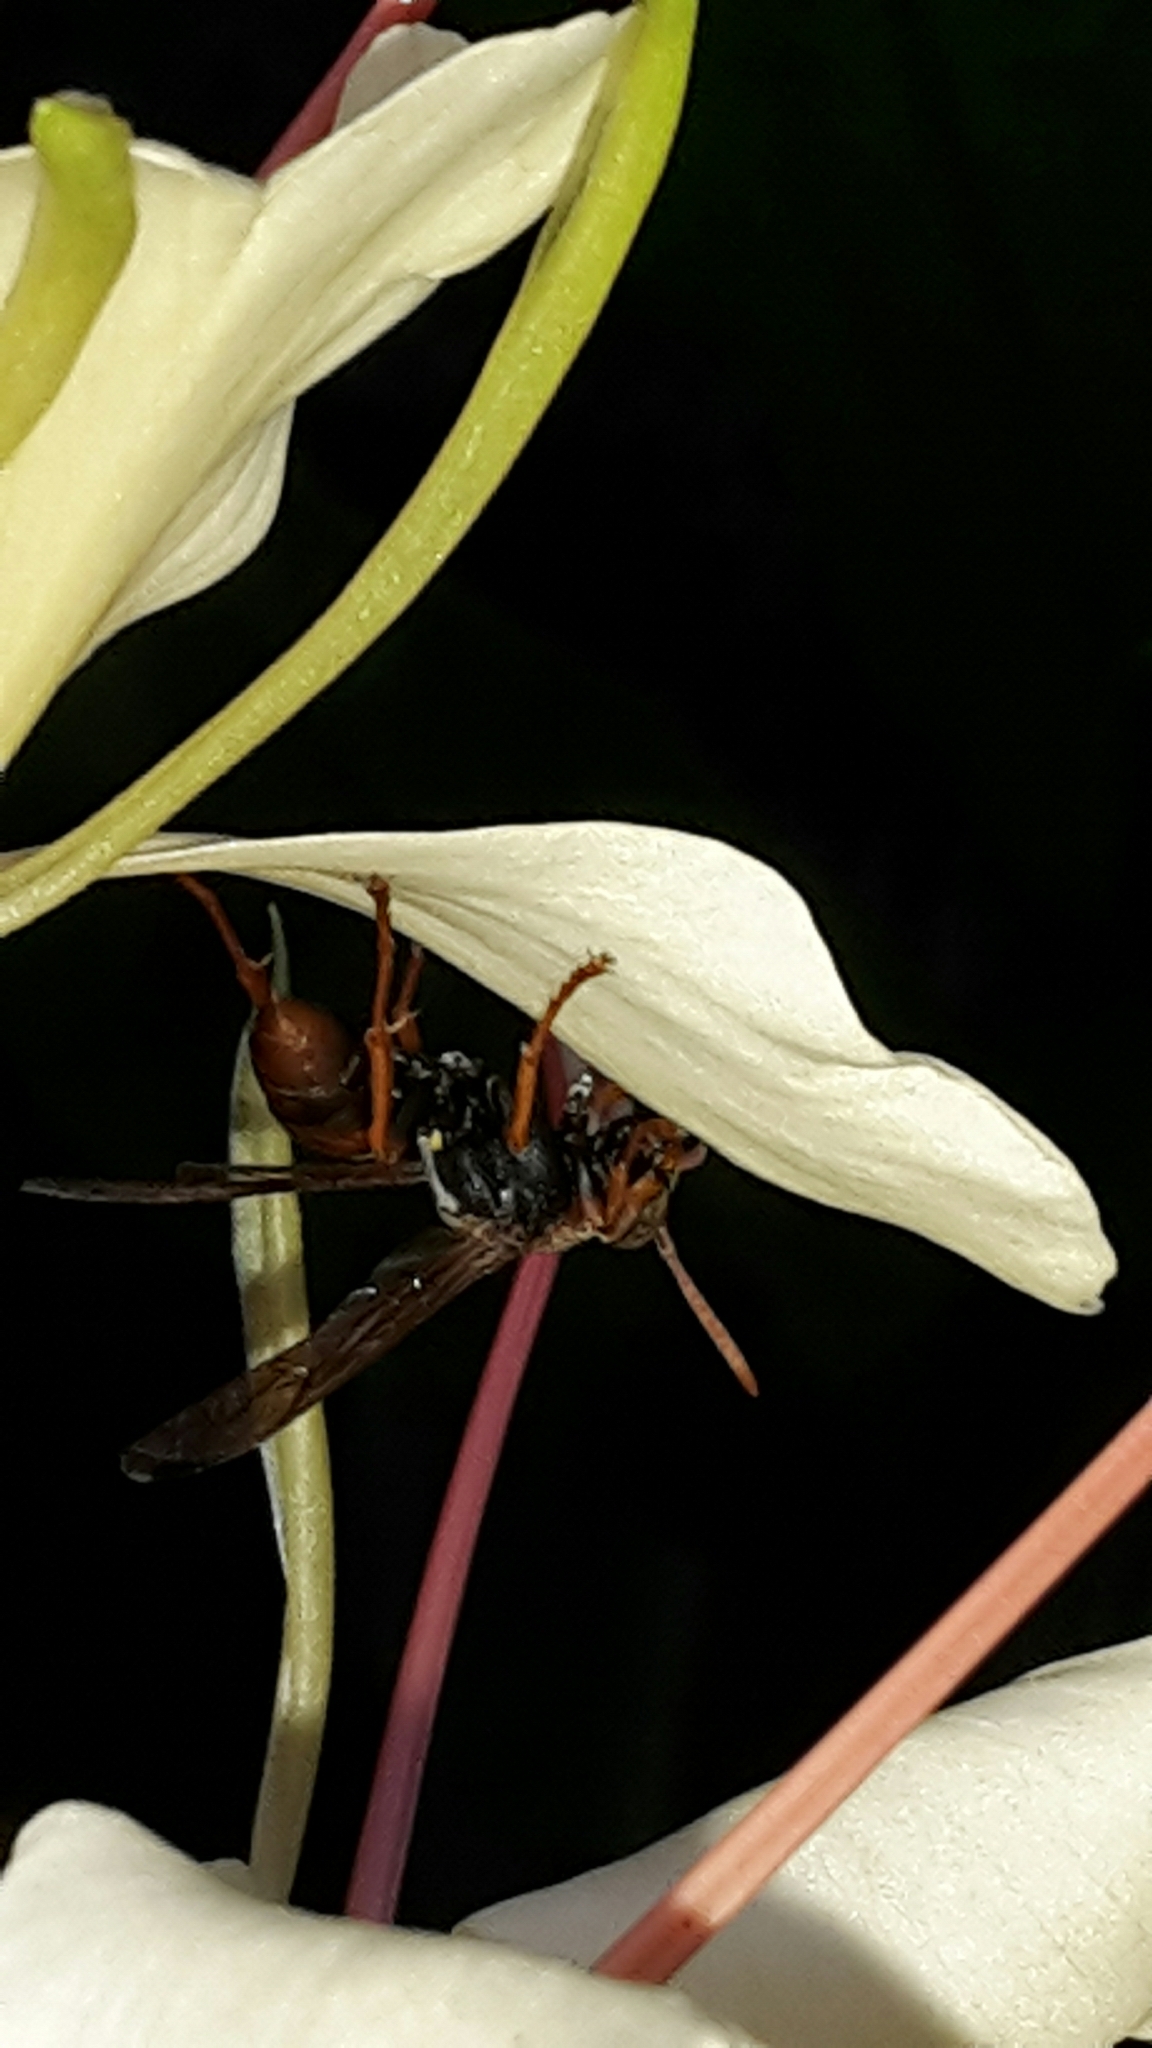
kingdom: Animalia
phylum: Arthropoda
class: Insecta
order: Hymenoptera
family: Eumenidae
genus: Polistes
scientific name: Polistes humilis
